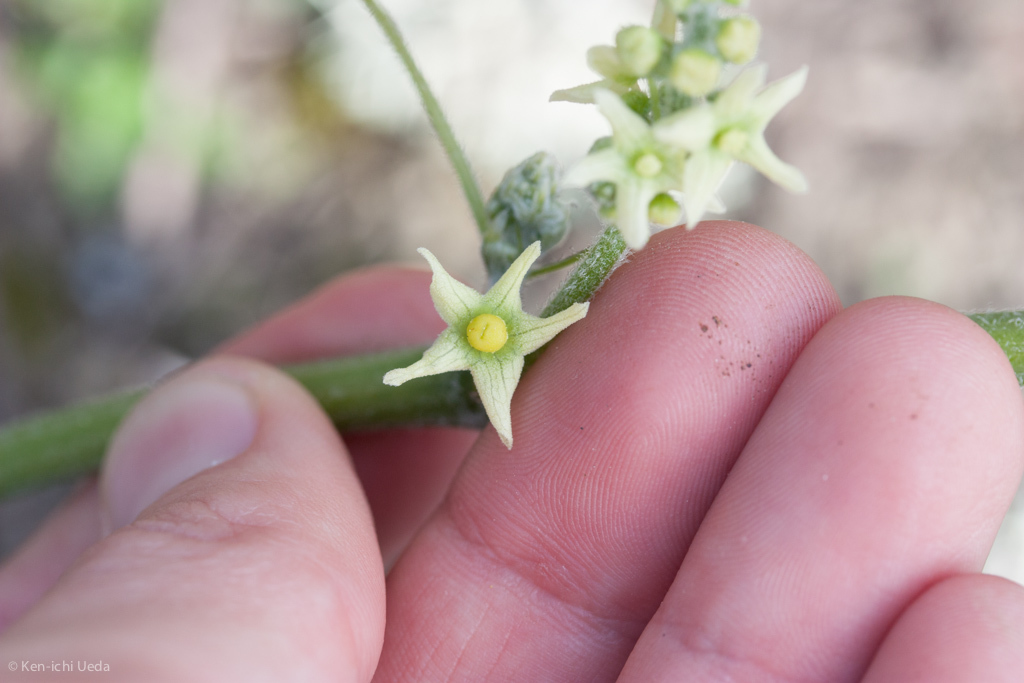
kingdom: Plantae
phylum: Tracheophyta
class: Magnoliopsida
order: Cucurbitales
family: Cucurbitaceae
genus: Marah
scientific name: Marah fabacea
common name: California manroot
